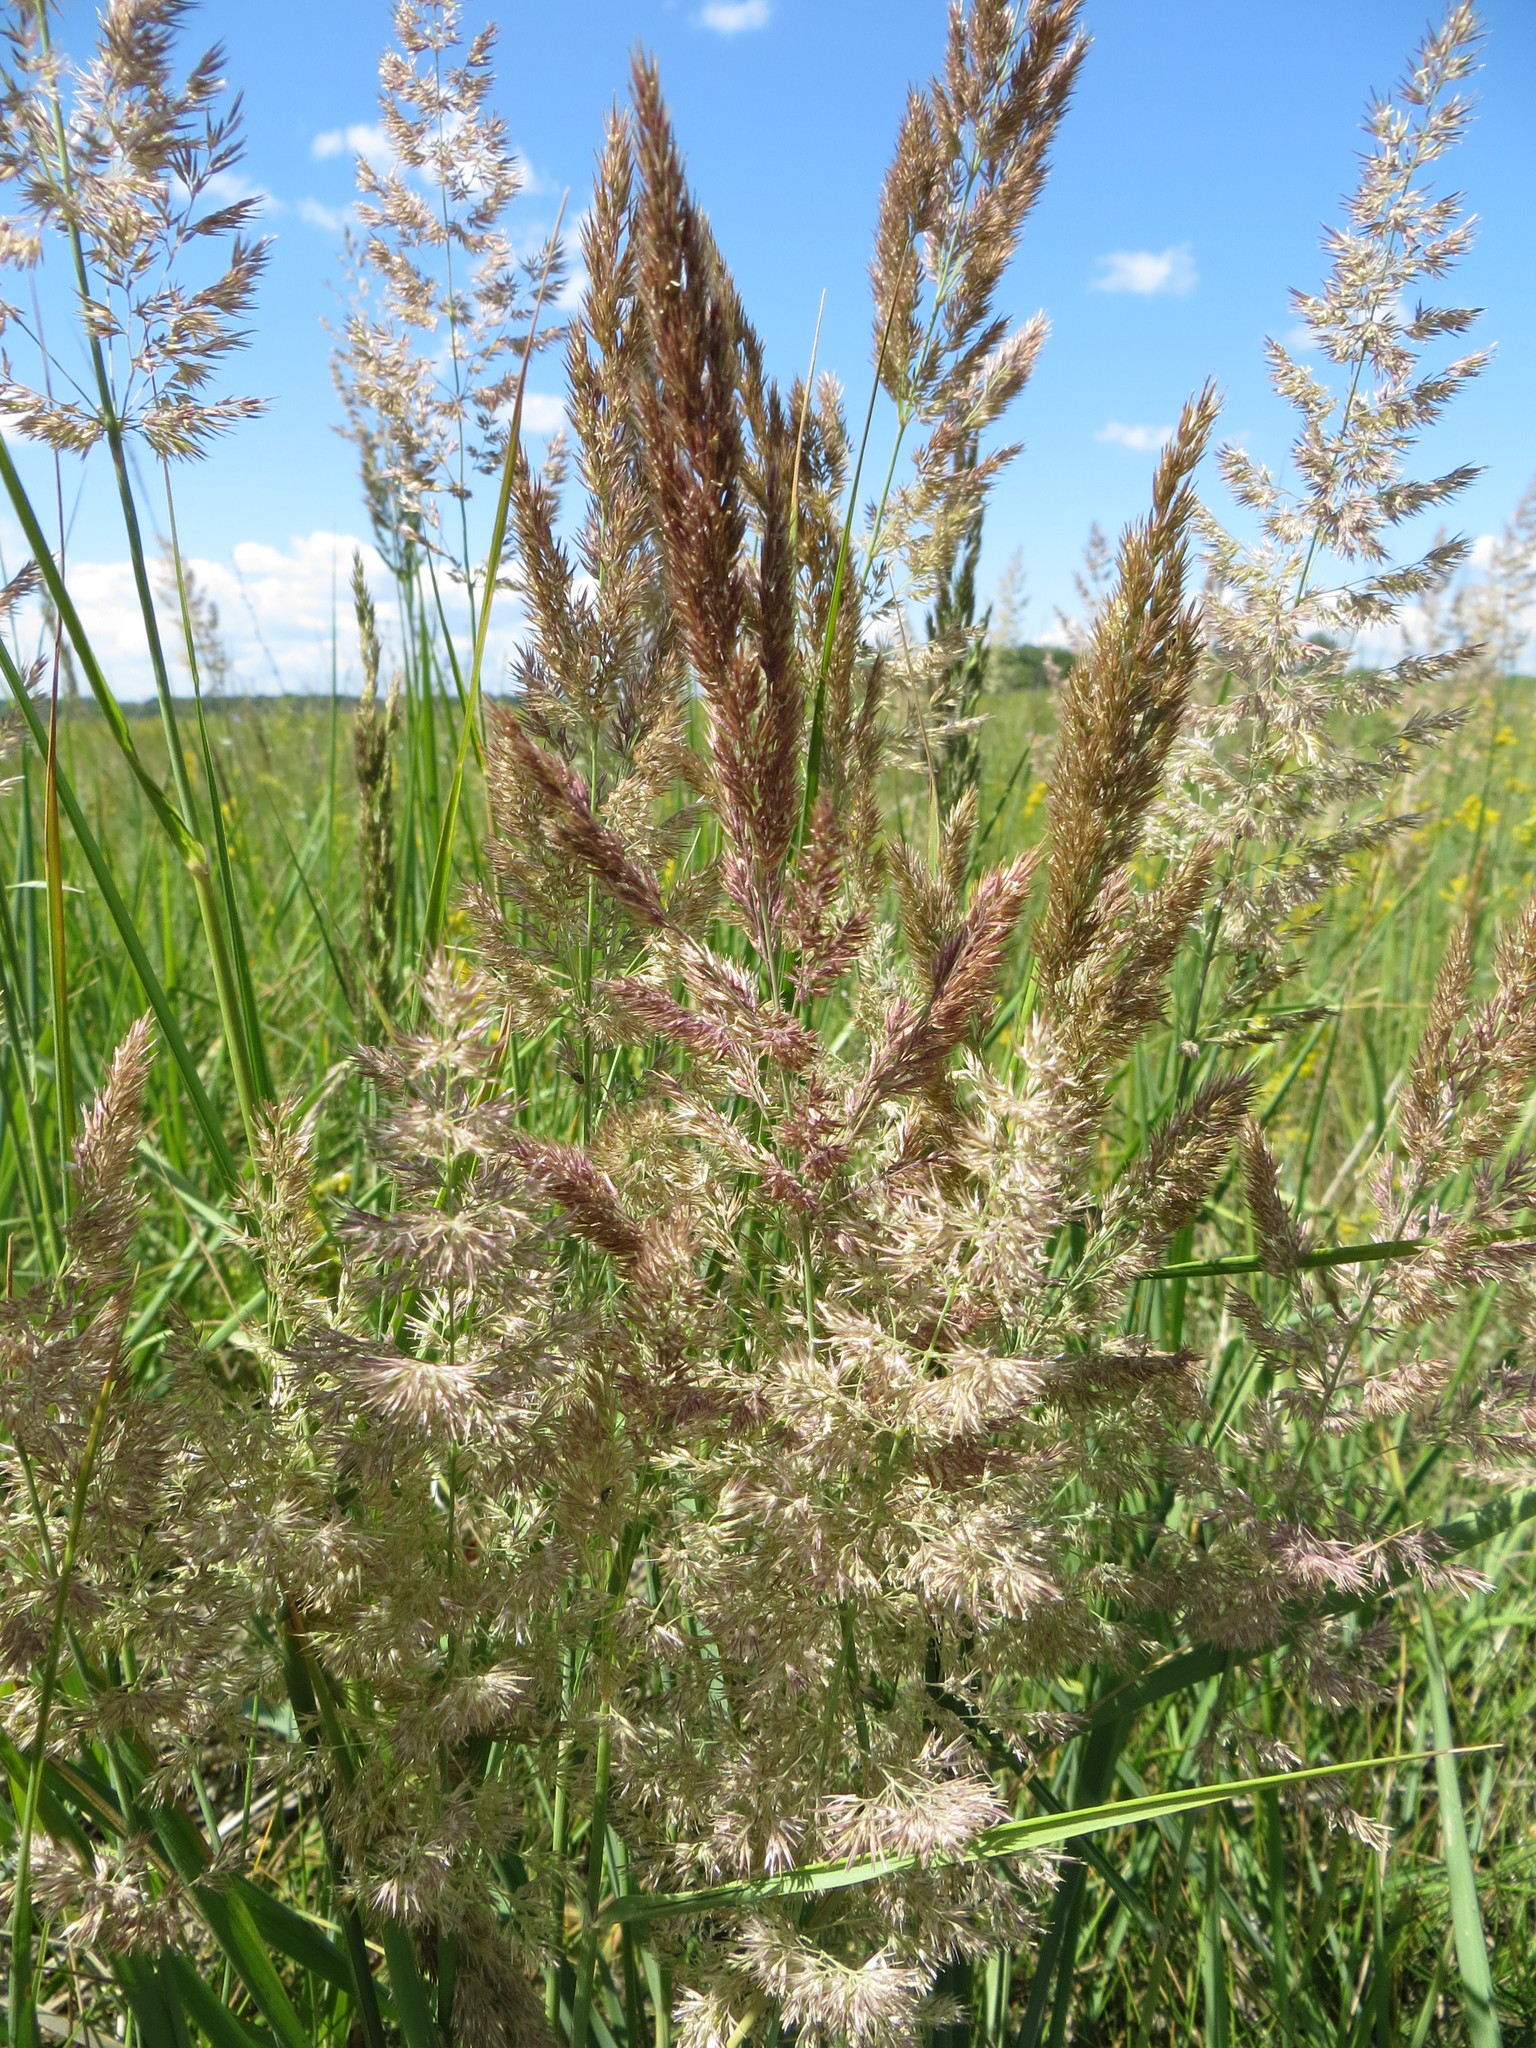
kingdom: Plantae
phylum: Tracheophyta
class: Liliopsida
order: Poales
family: Poaceae
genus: Calamagrostis
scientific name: Calamagrostis epigejos
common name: Wood small-reed
